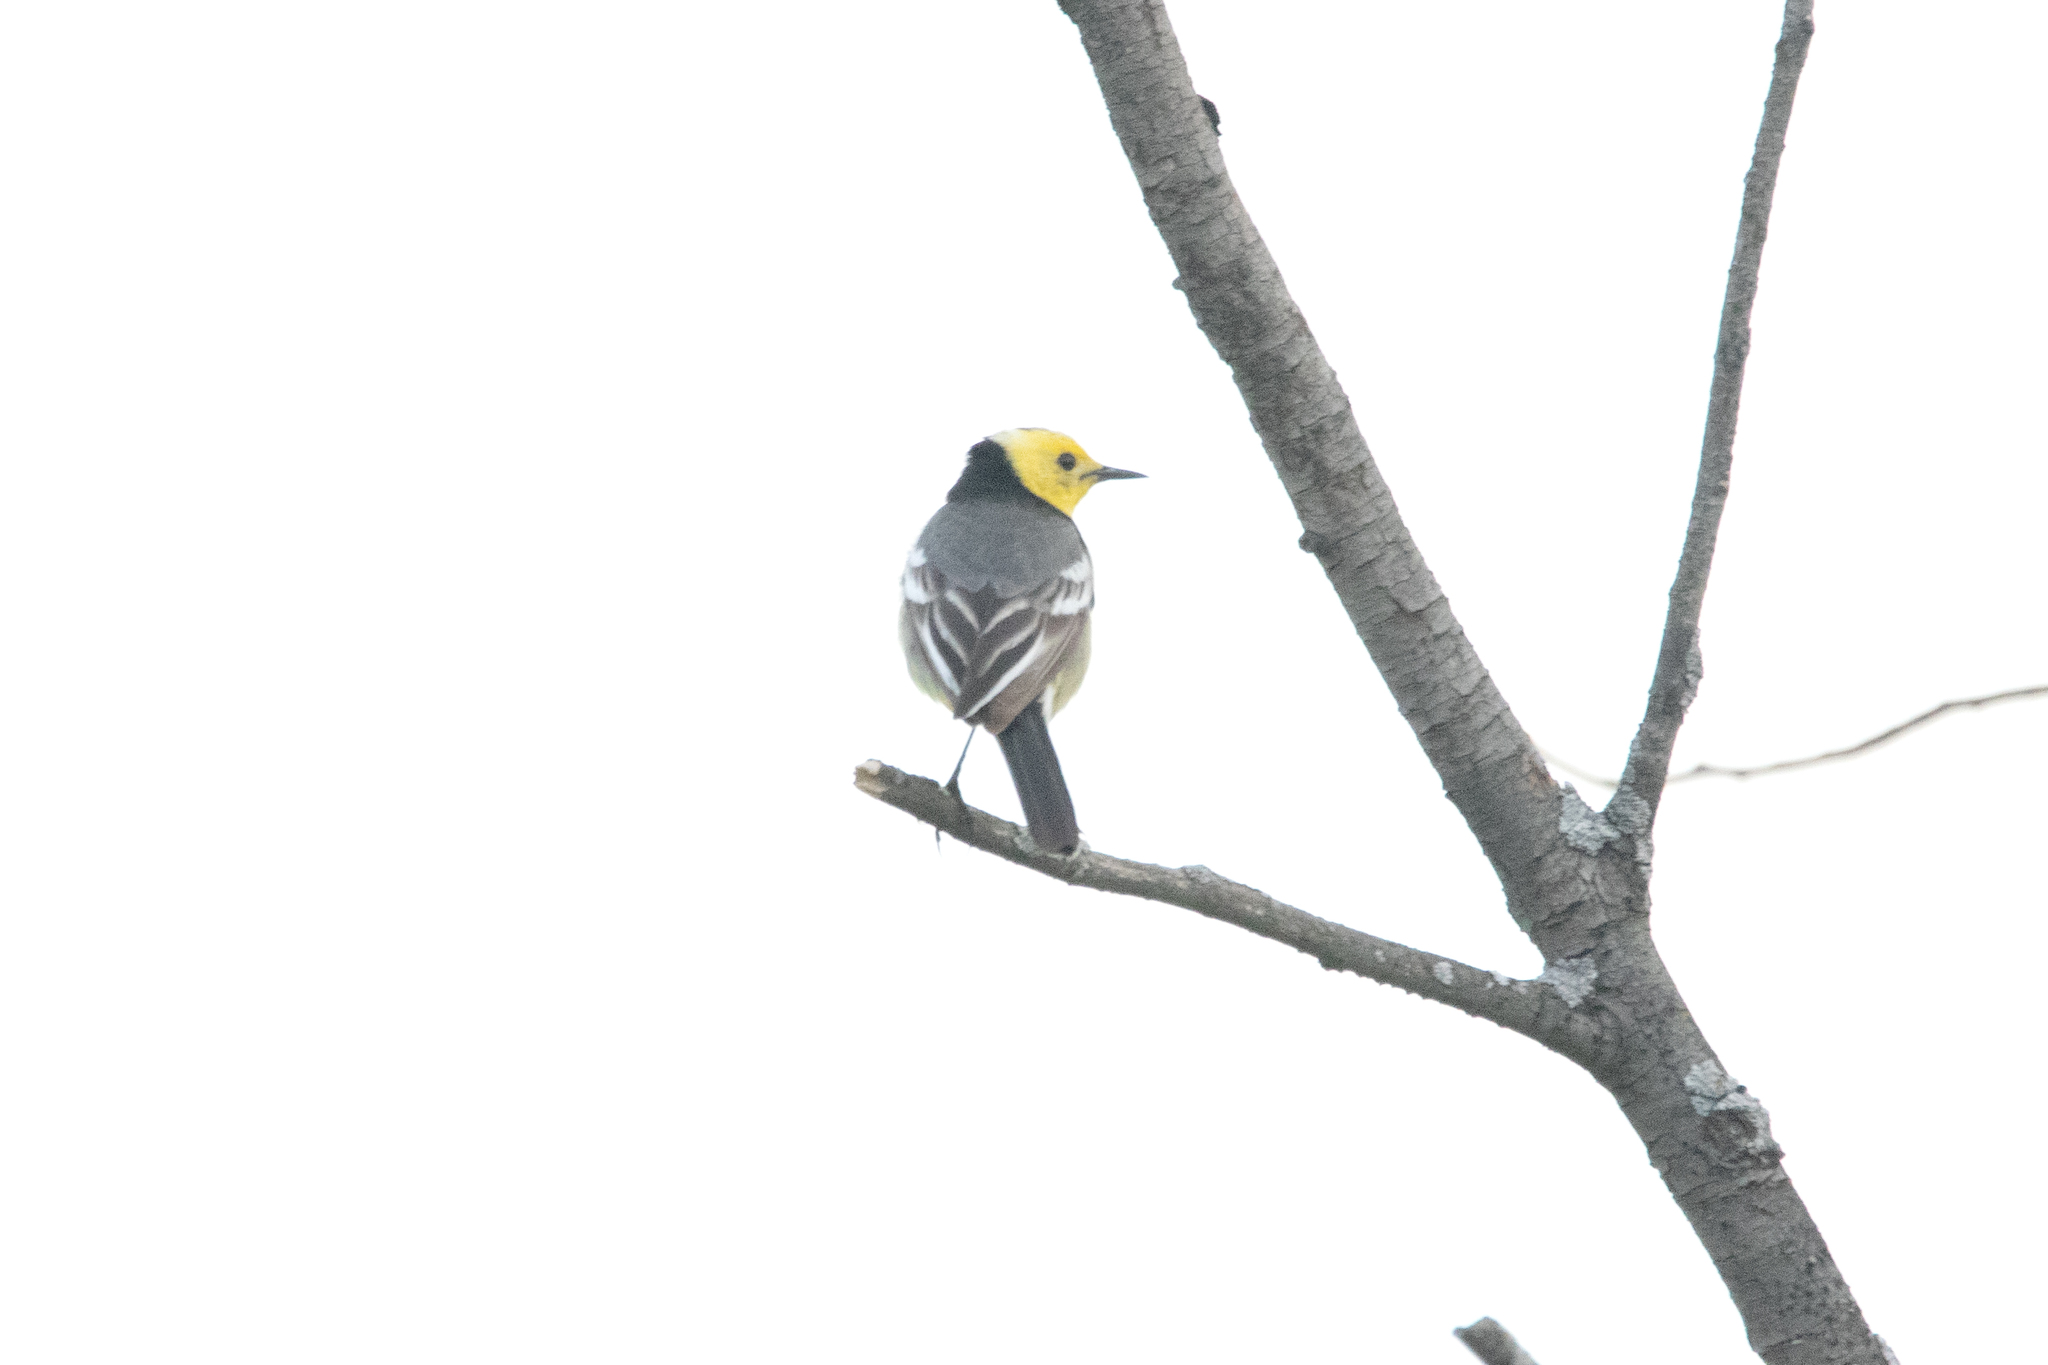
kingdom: Animalia
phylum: Chordata
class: Aves
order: Passeriformes
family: Motacillidae
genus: Motacilla
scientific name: Motacilla citreola
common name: Citrine wagtail
